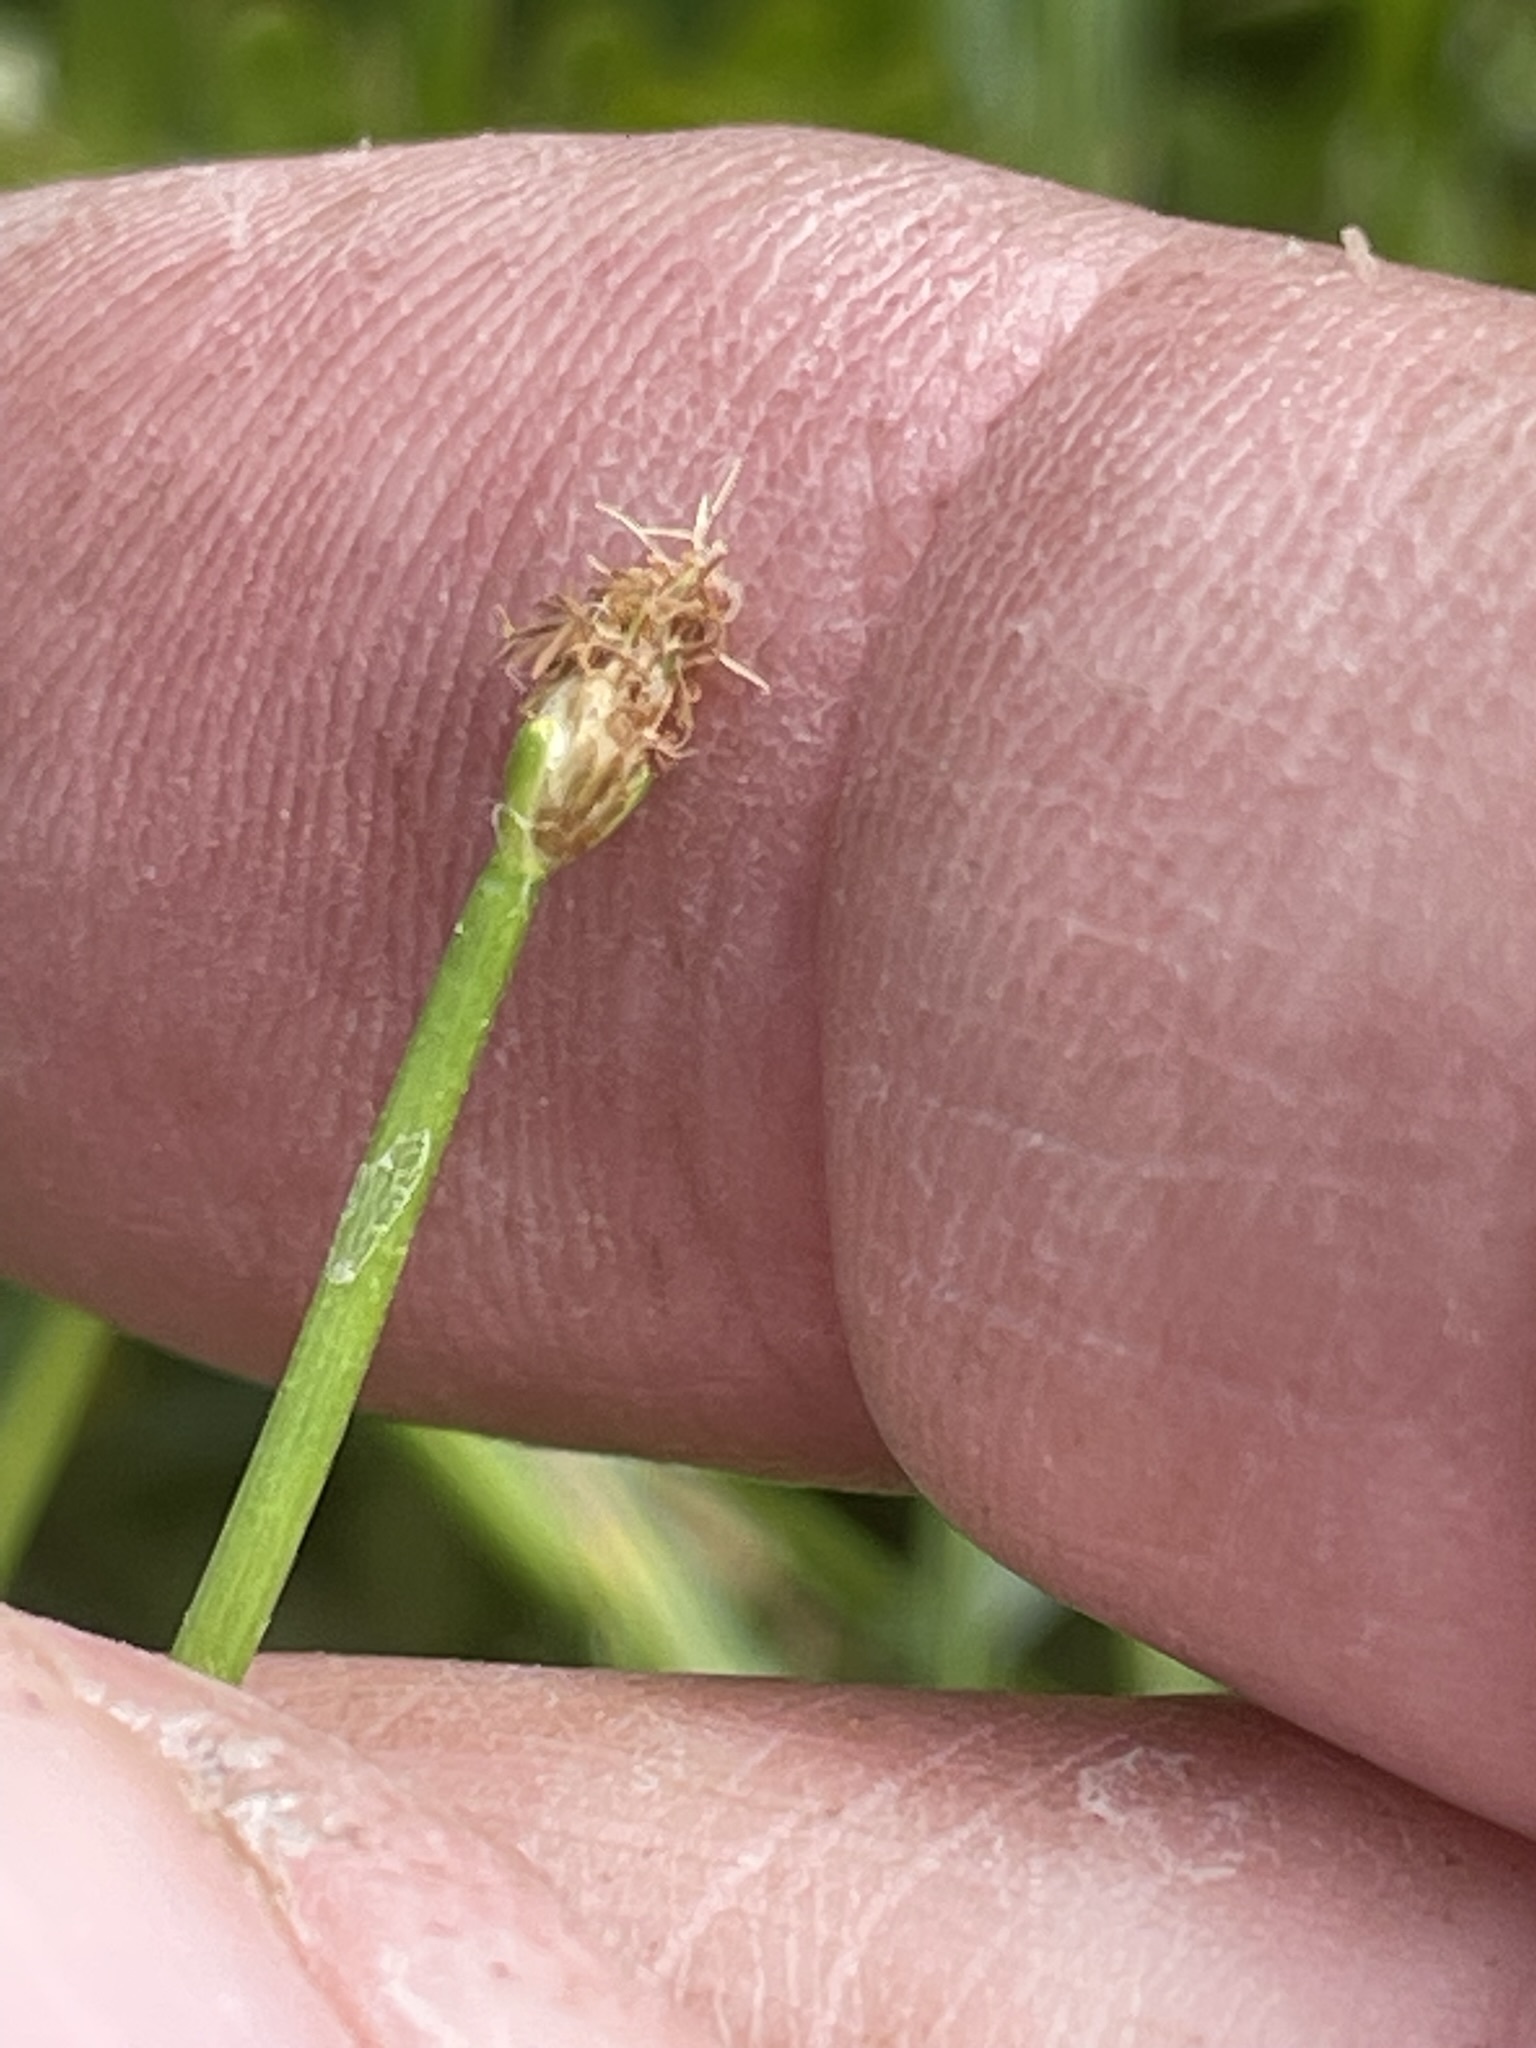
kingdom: Plantae
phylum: Tracheophyta
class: Liliopsida
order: Poales
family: Cyperaceae
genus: Eleocharis
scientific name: Eleocharis geniculata
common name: Canada spikesedge
